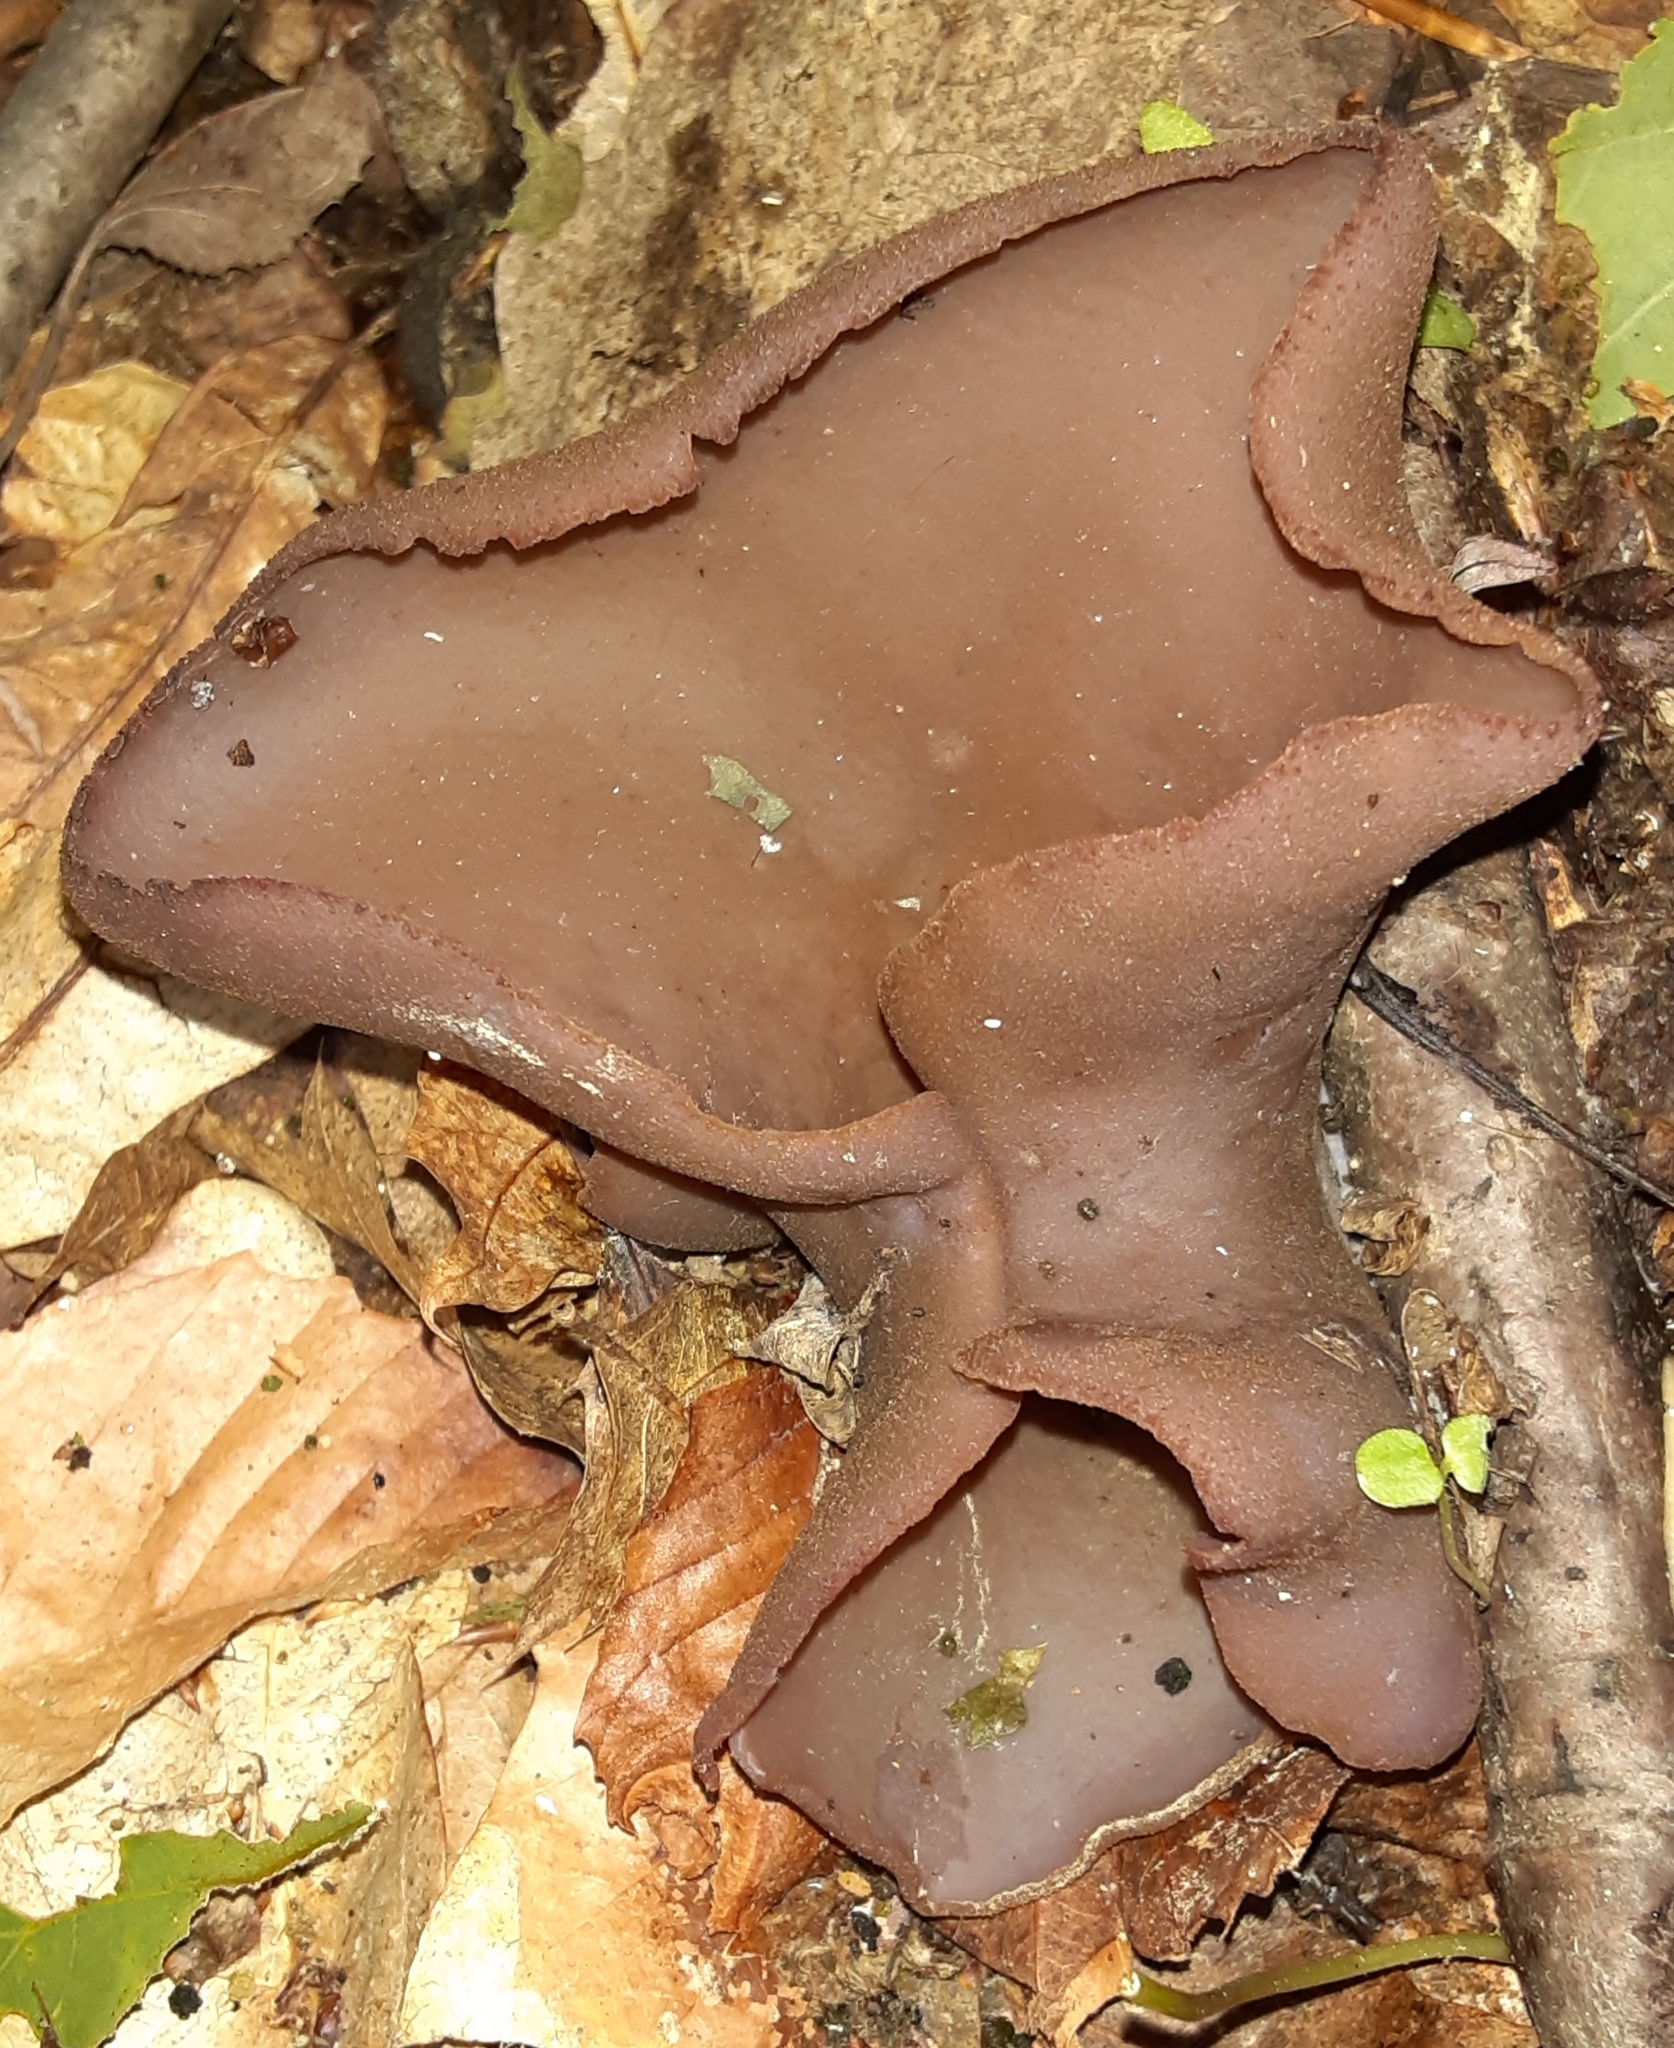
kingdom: Fungi
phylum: Ascomycota
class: Pezizomycetes
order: Pezizales
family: Pezizaceae
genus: Phylloscypha
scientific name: Phylloscypha phyllogena
